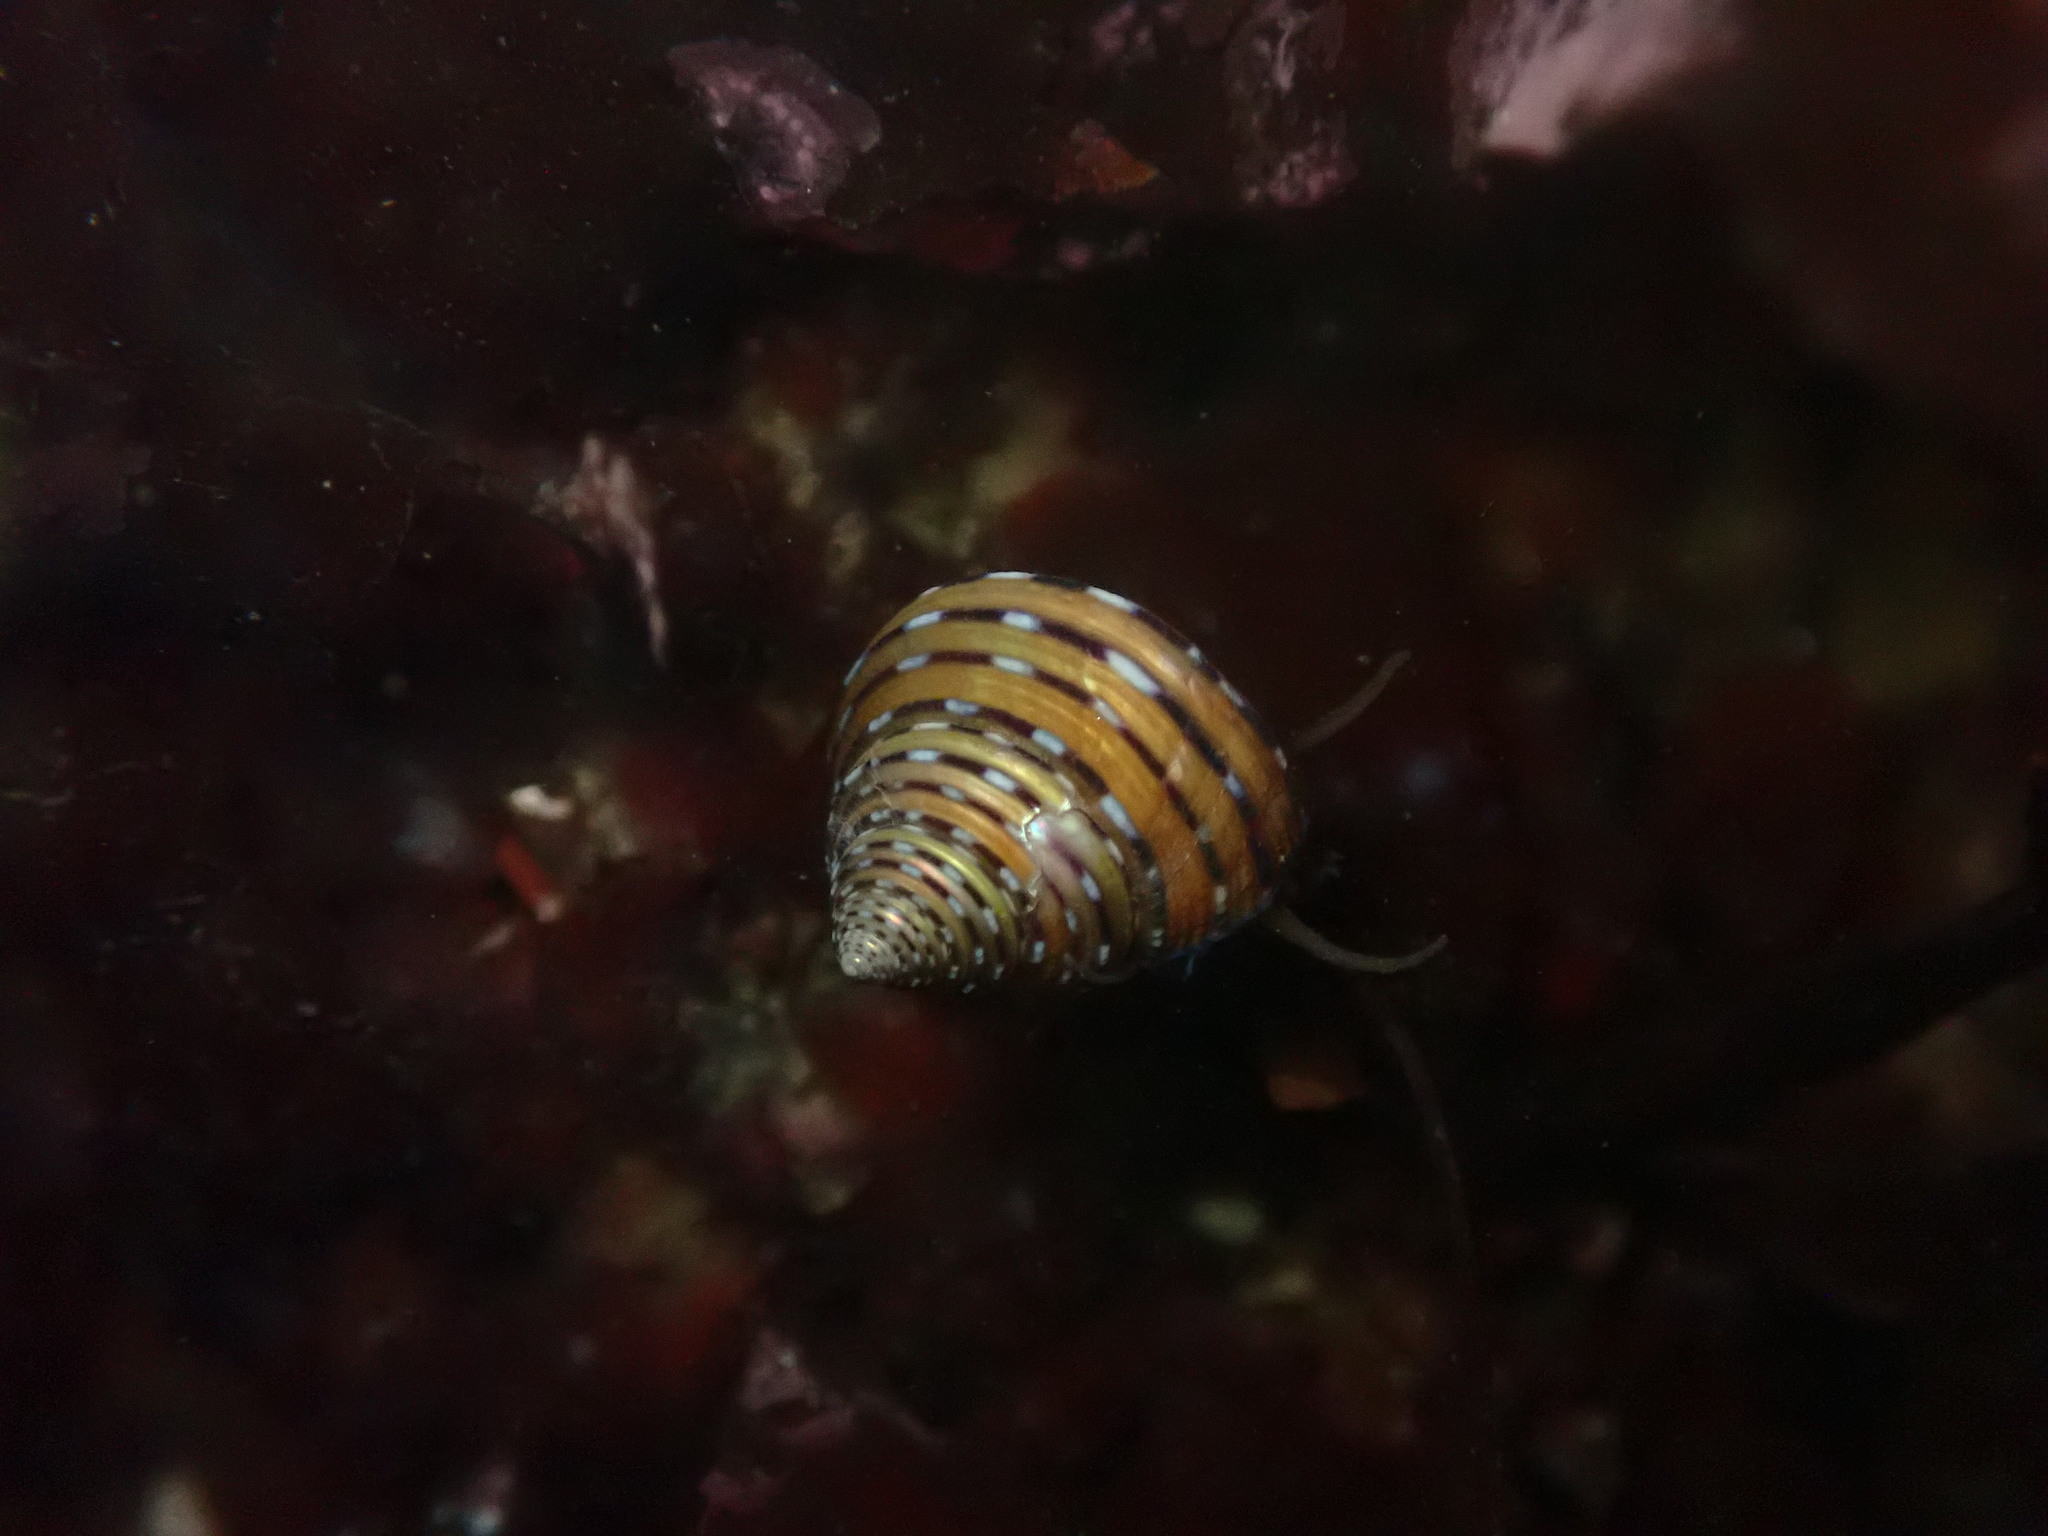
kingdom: Animalia
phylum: Mollusca
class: Gastropoda
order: Trochida
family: Calliostomatidae
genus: Calliostoma
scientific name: Calliostoma tricolor
